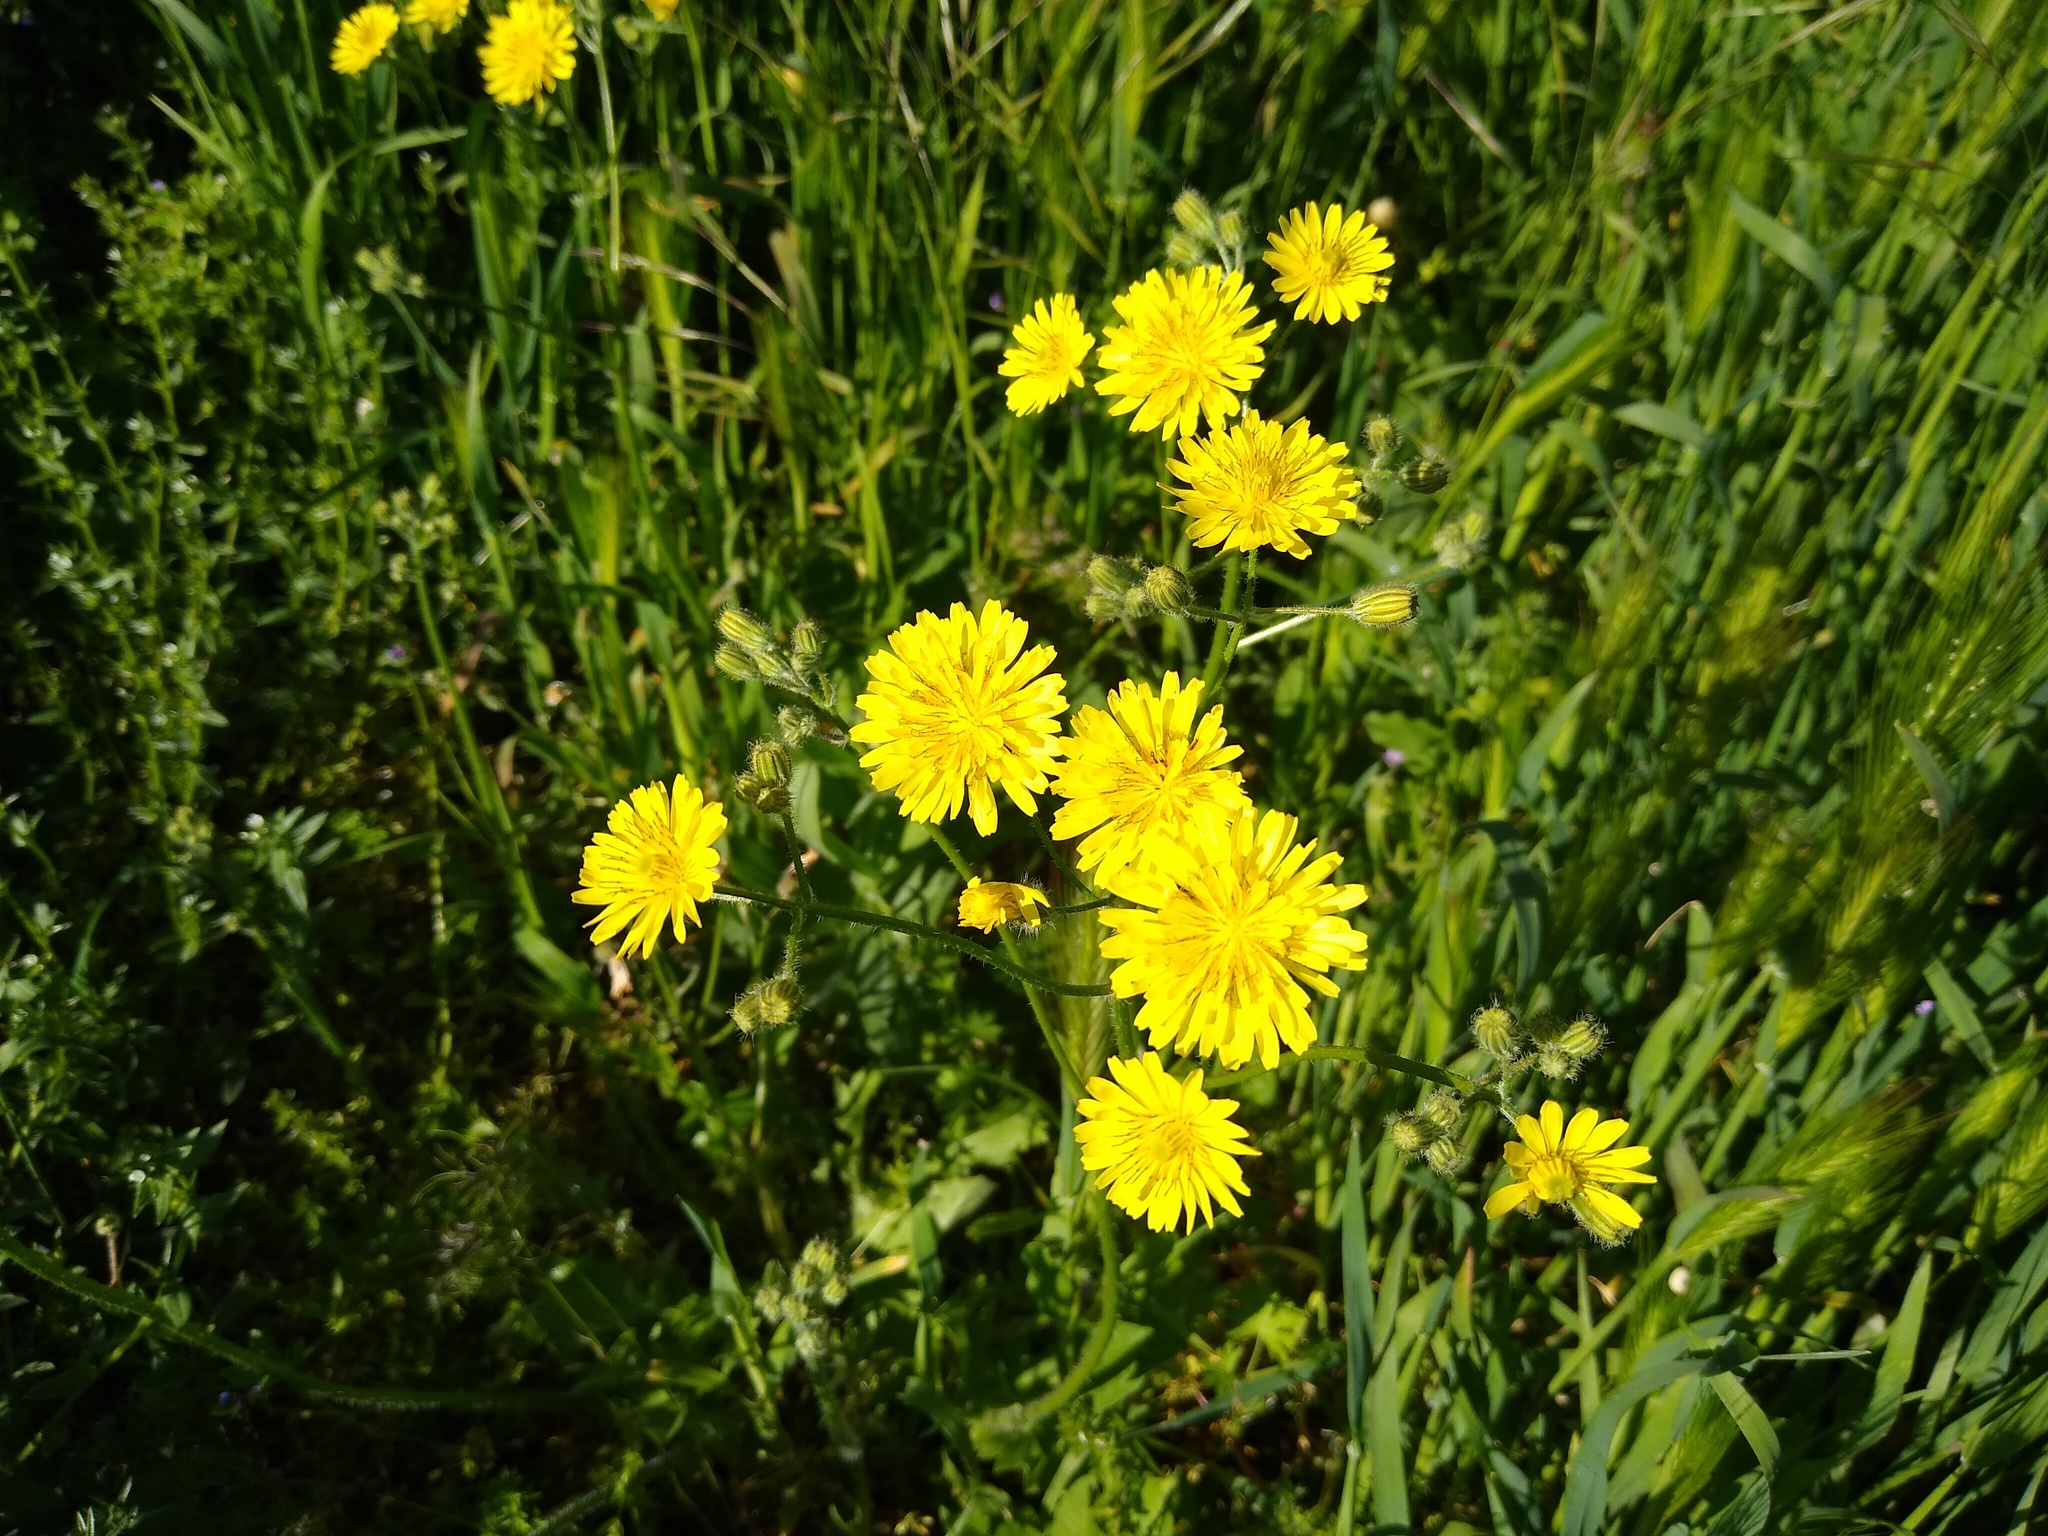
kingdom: Plantae
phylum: Tracheophyta
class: Magnoliopsida
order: Asterales
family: Asteraceae
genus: Crepis
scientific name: Crepis sancta
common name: Hawk's-beard
